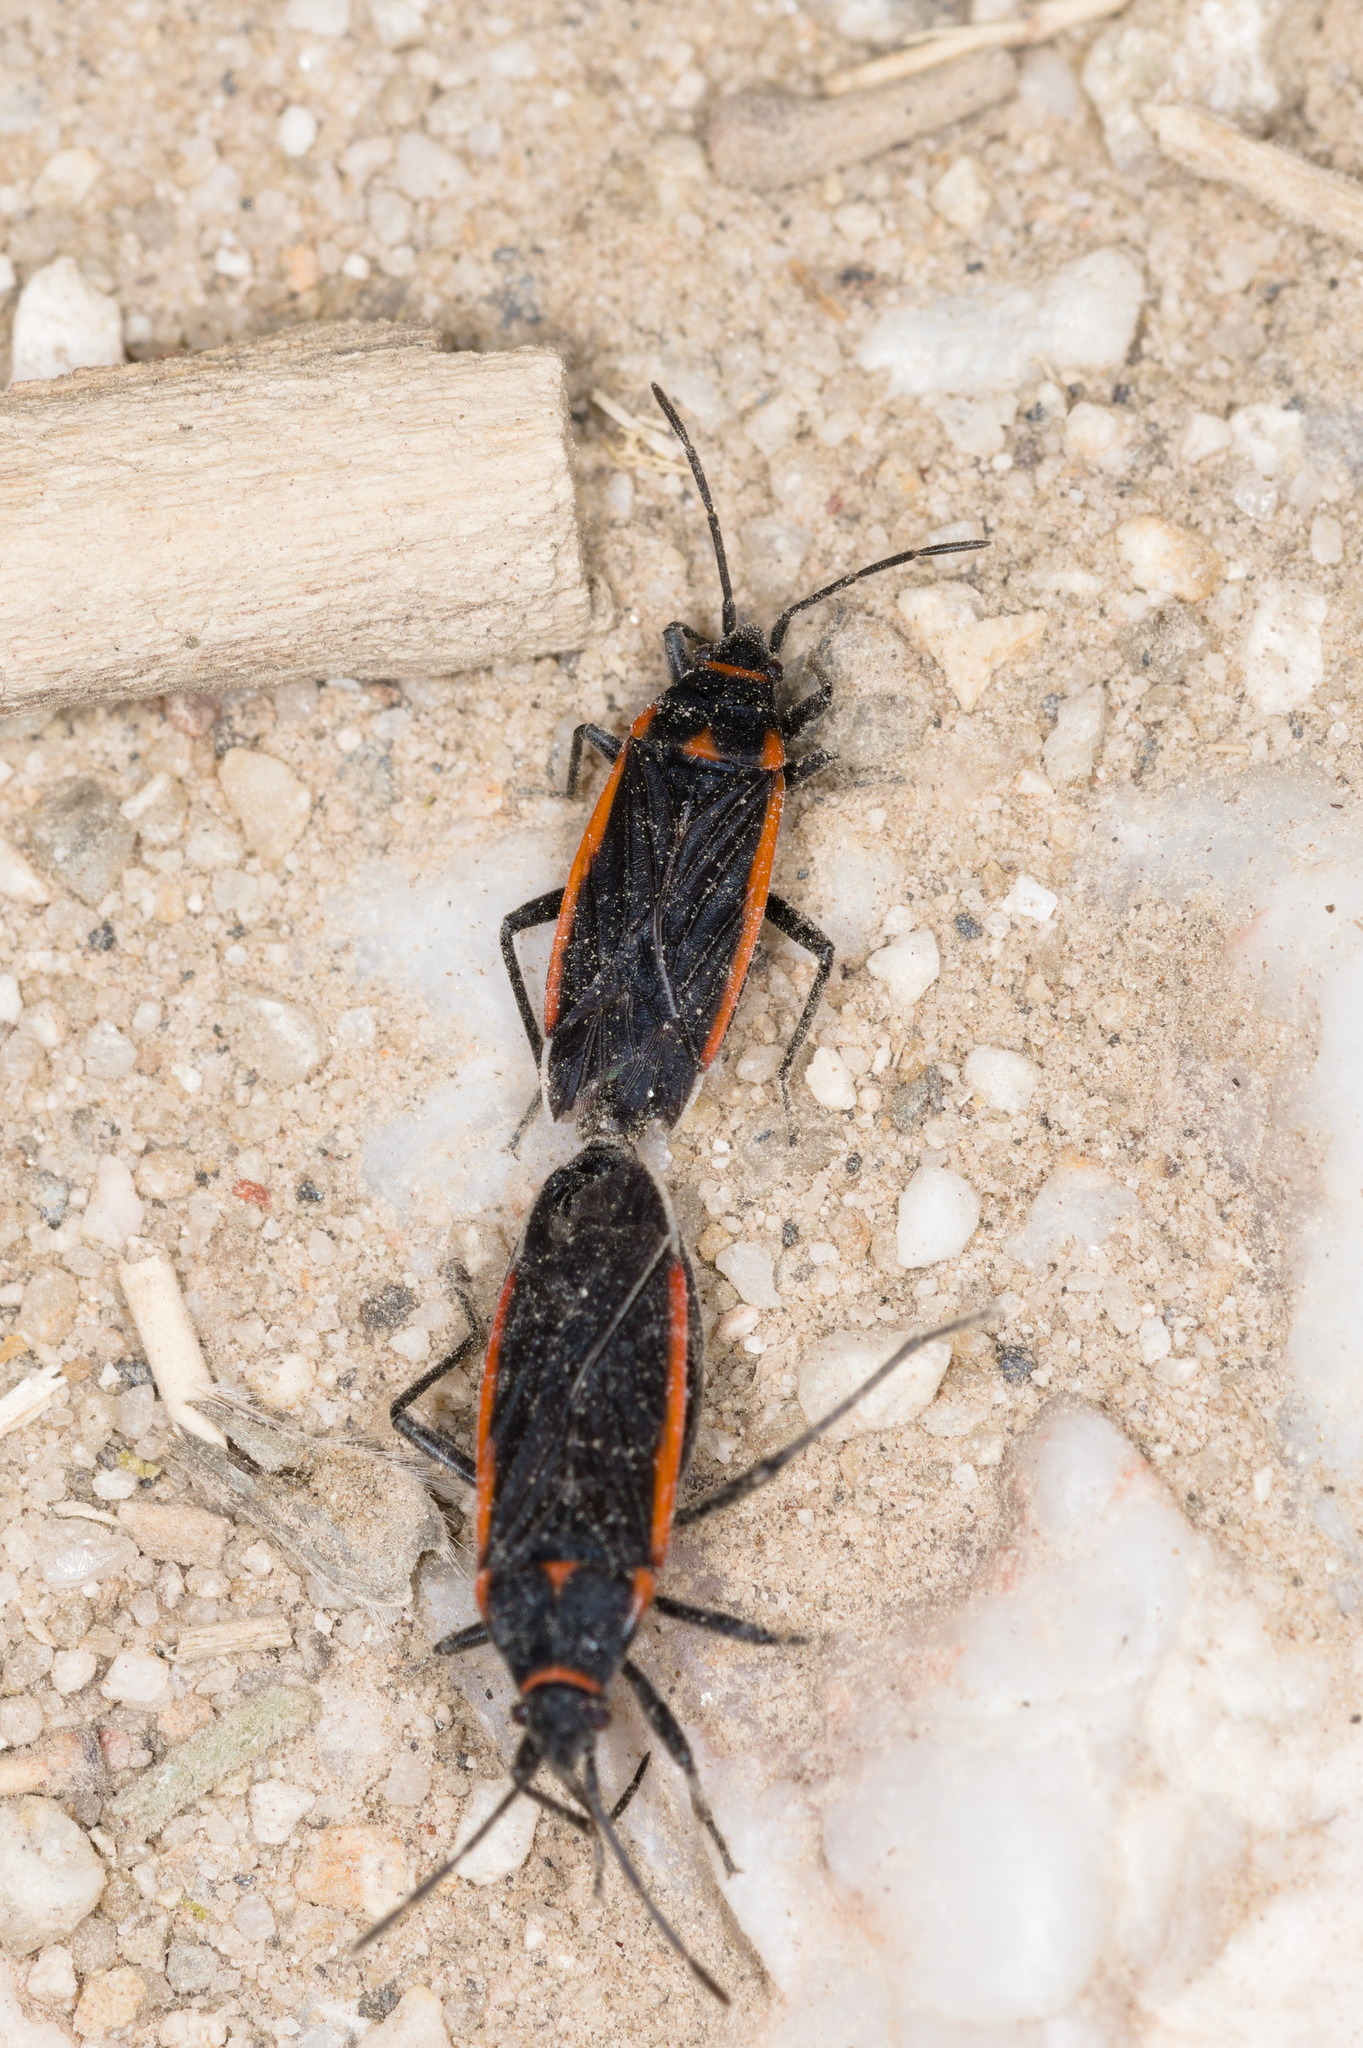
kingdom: Animalia
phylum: Arthropoda
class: Insecta
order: Hemiptera
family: Lygaeidae
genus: Melacoryphus
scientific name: Melacoryphus lateralis
